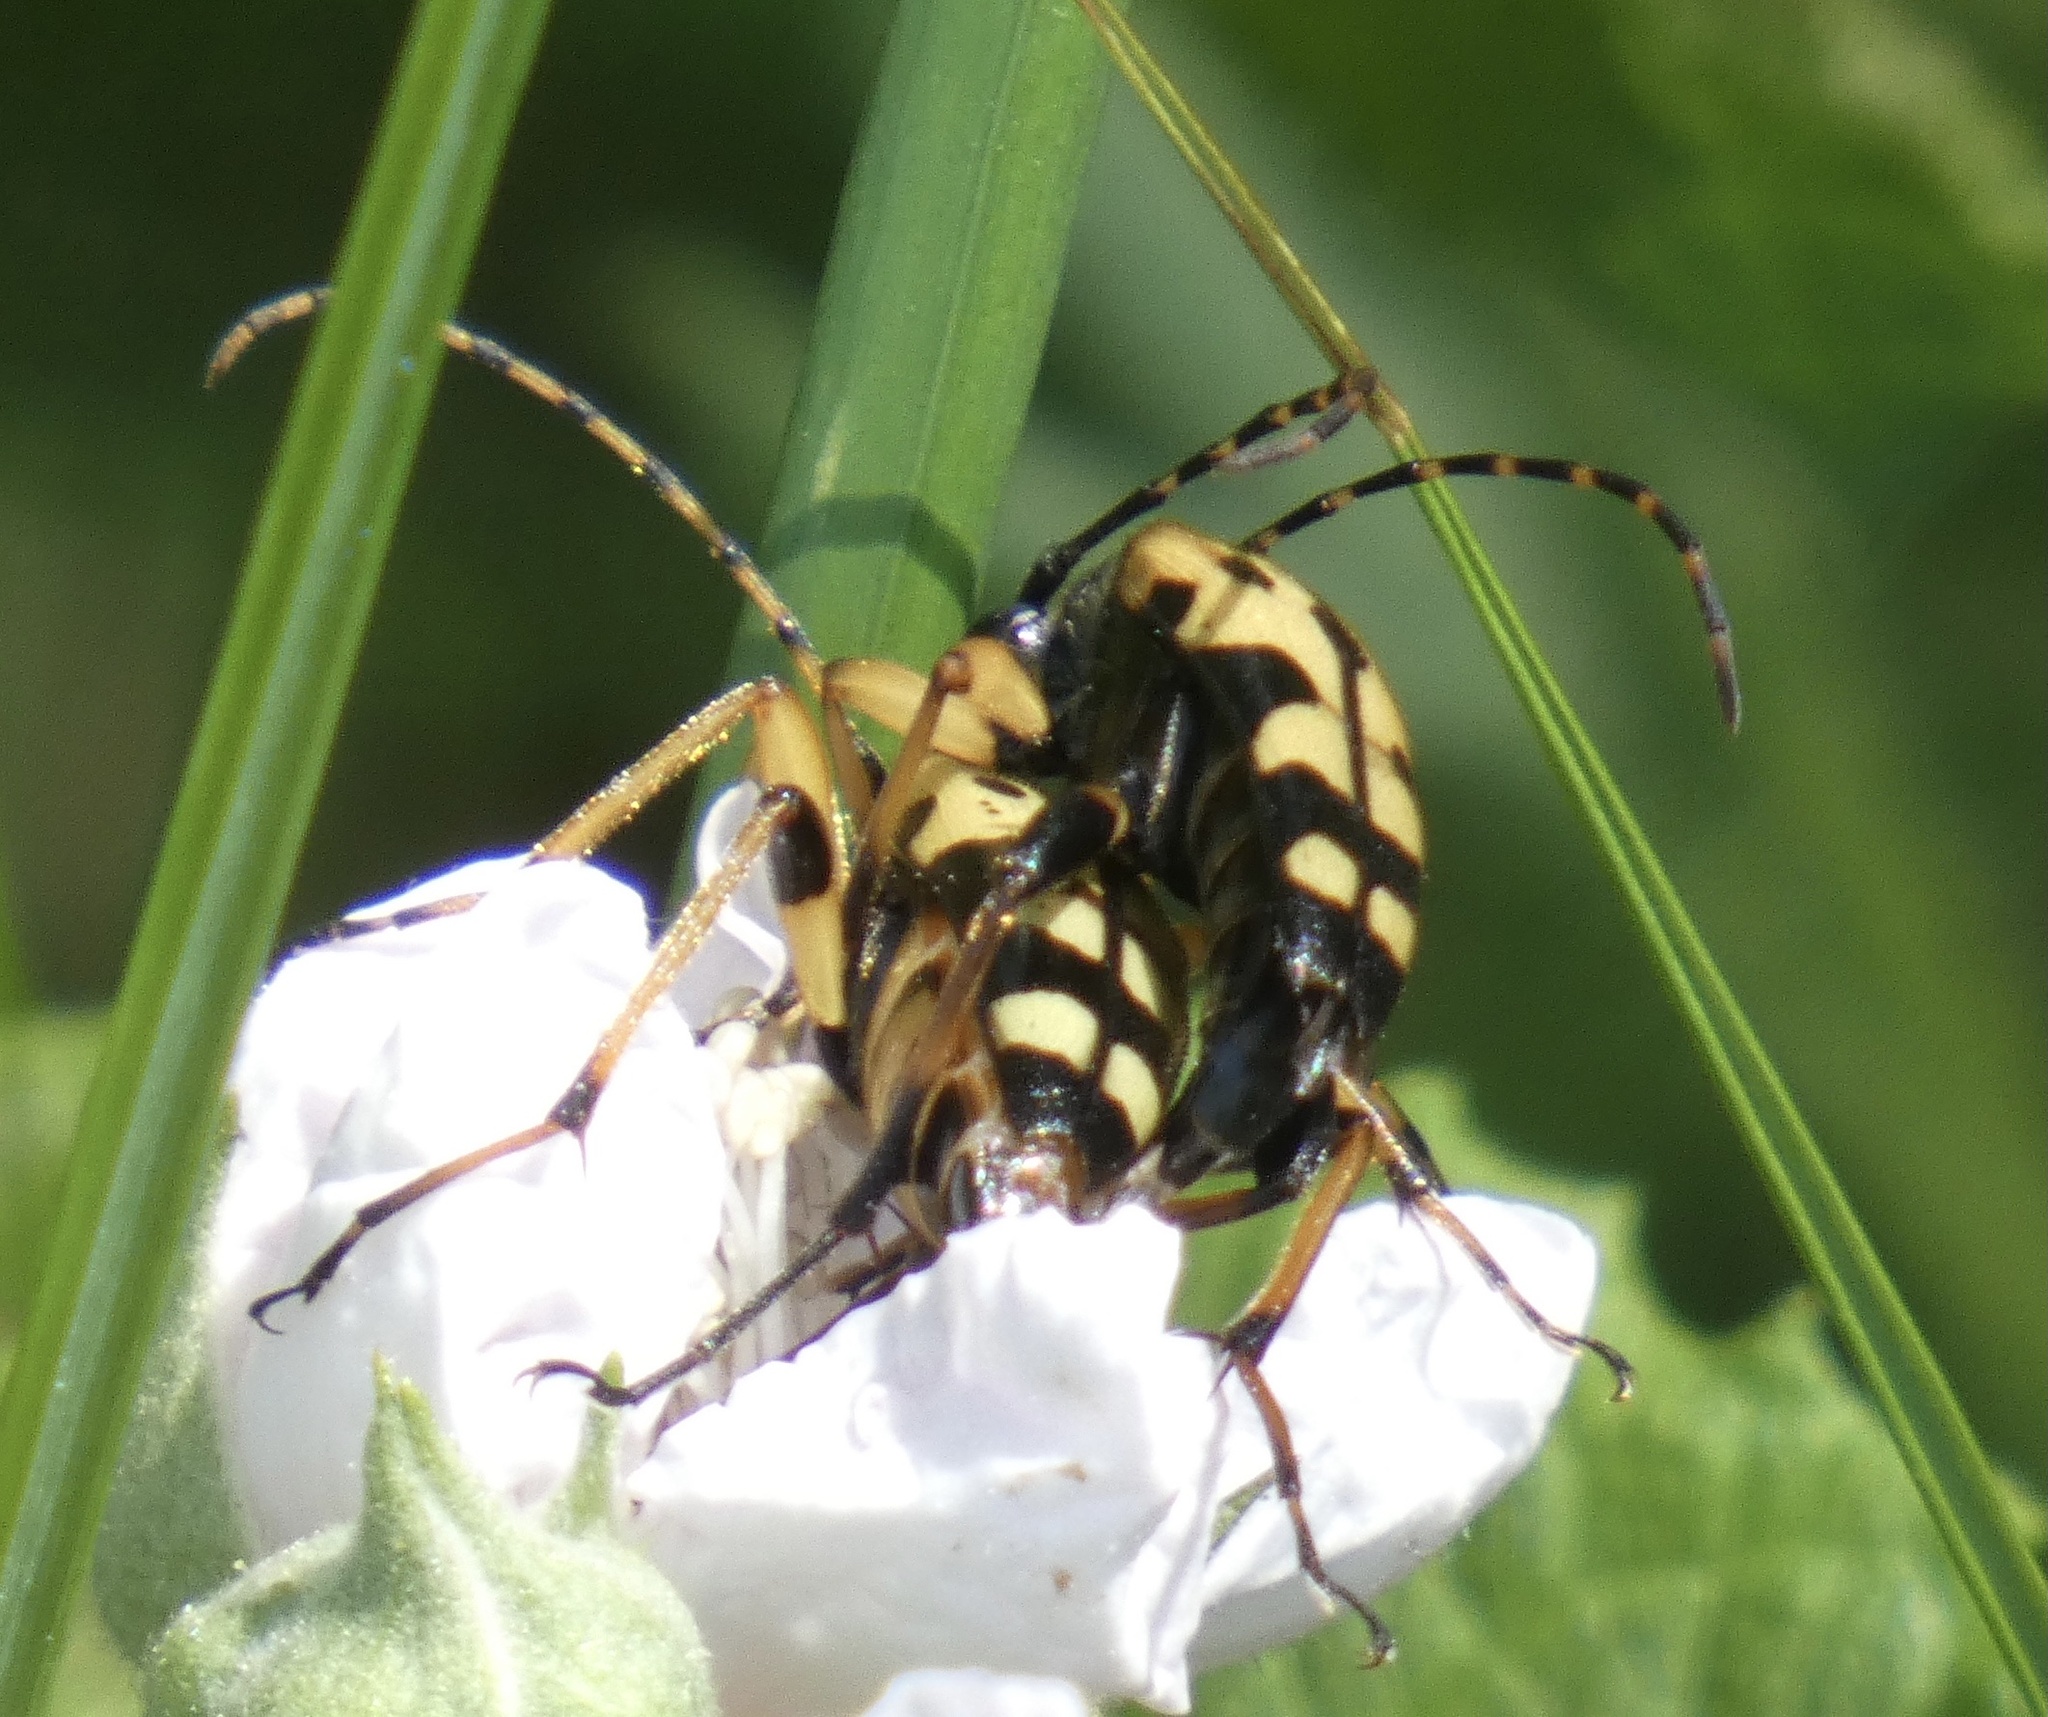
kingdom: Animalia
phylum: Arthropoda
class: Insecta
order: Coleoptera
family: Cerambycidae
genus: Rutpela
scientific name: Rutpela maculata
